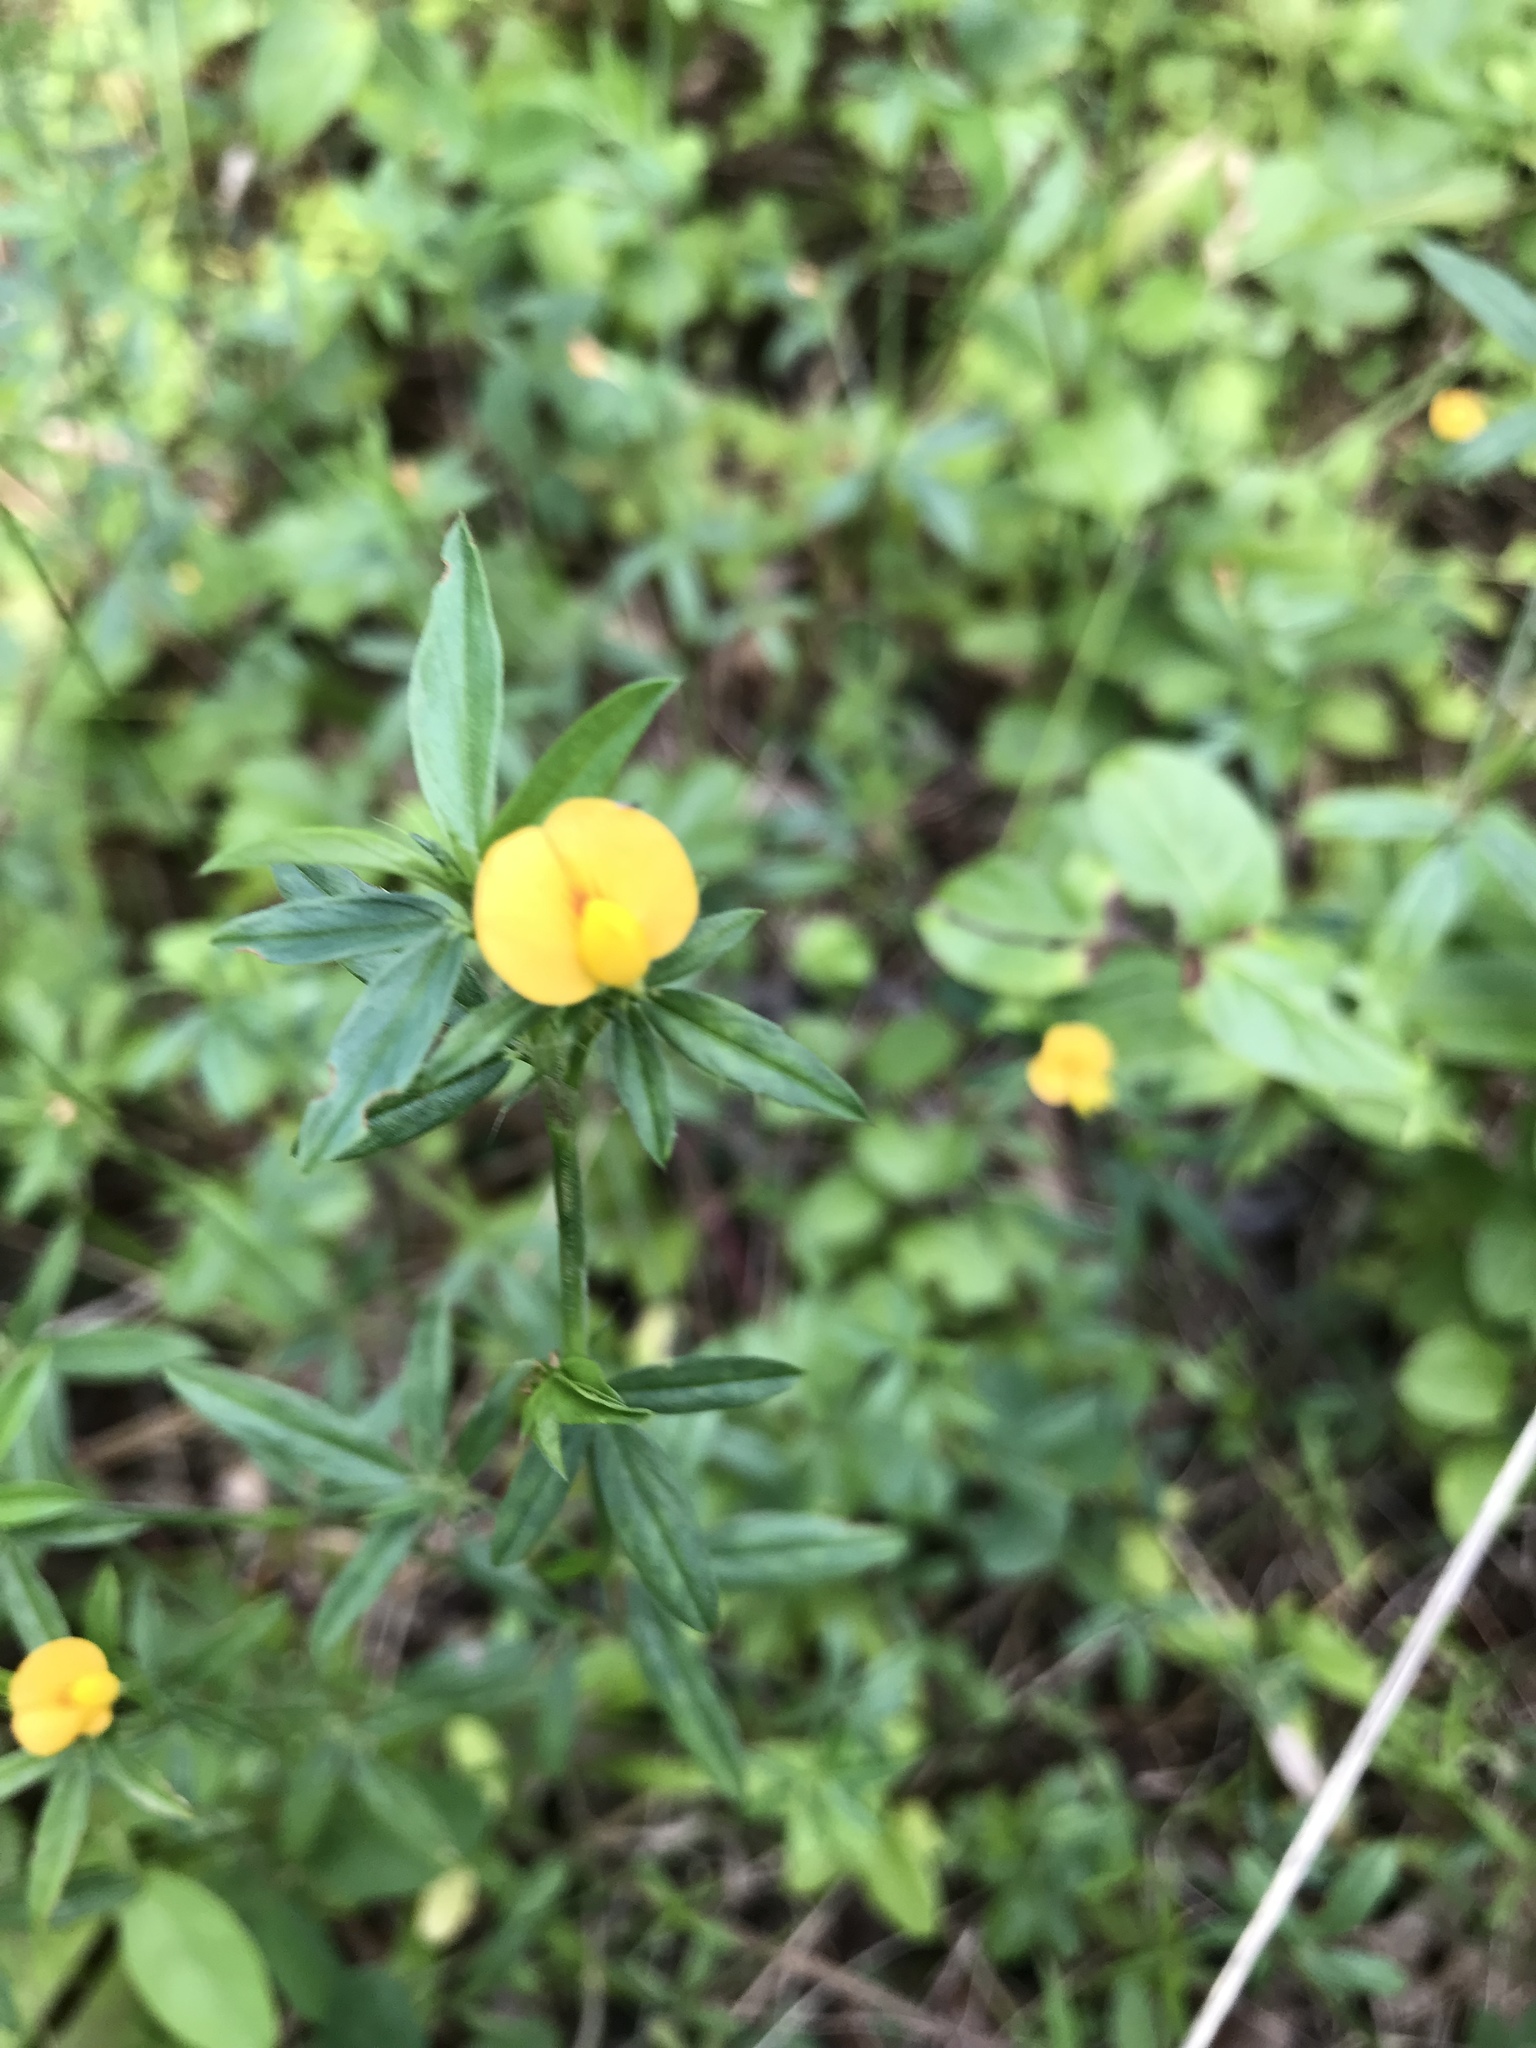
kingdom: Plantae
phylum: Tracheophyta
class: Magnoliopsida
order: Fabales
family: Fabaceae
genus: Stylosanthes
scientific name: Stylosanthes biflora
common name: Two-flower pencil-flower
